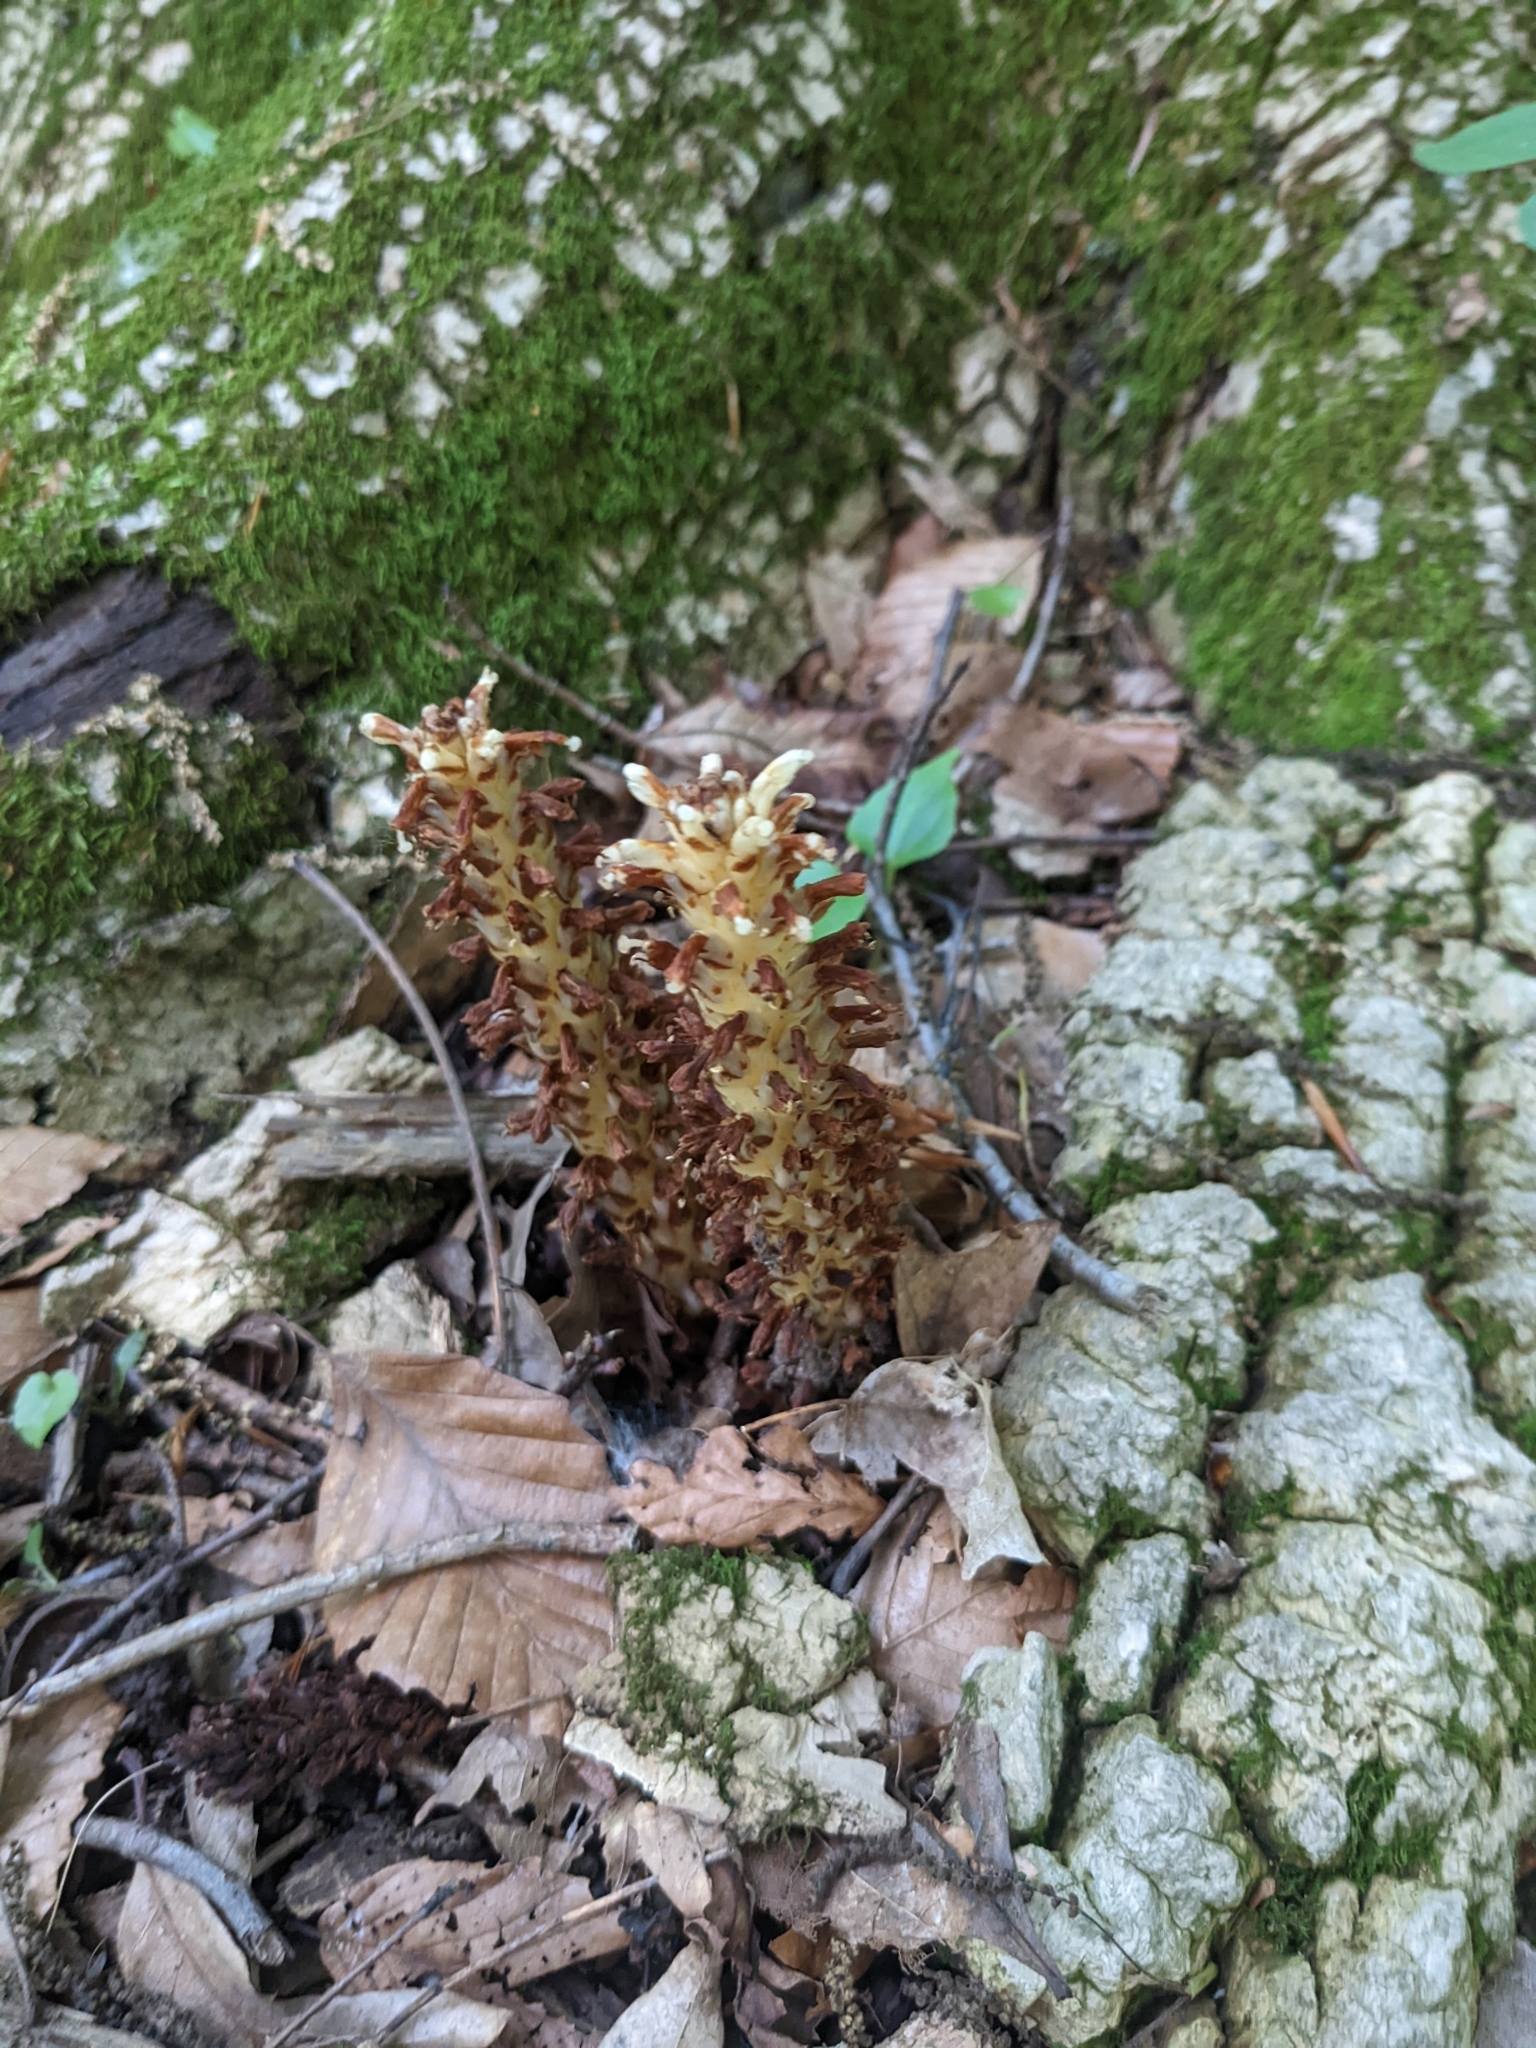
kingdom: Plantae
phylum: Tracheophyta
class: Magnoliopsida
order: Lamiales
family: Orobanchaceae
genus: Conopholis
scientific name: Conopholis americana
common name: American cancer-root
